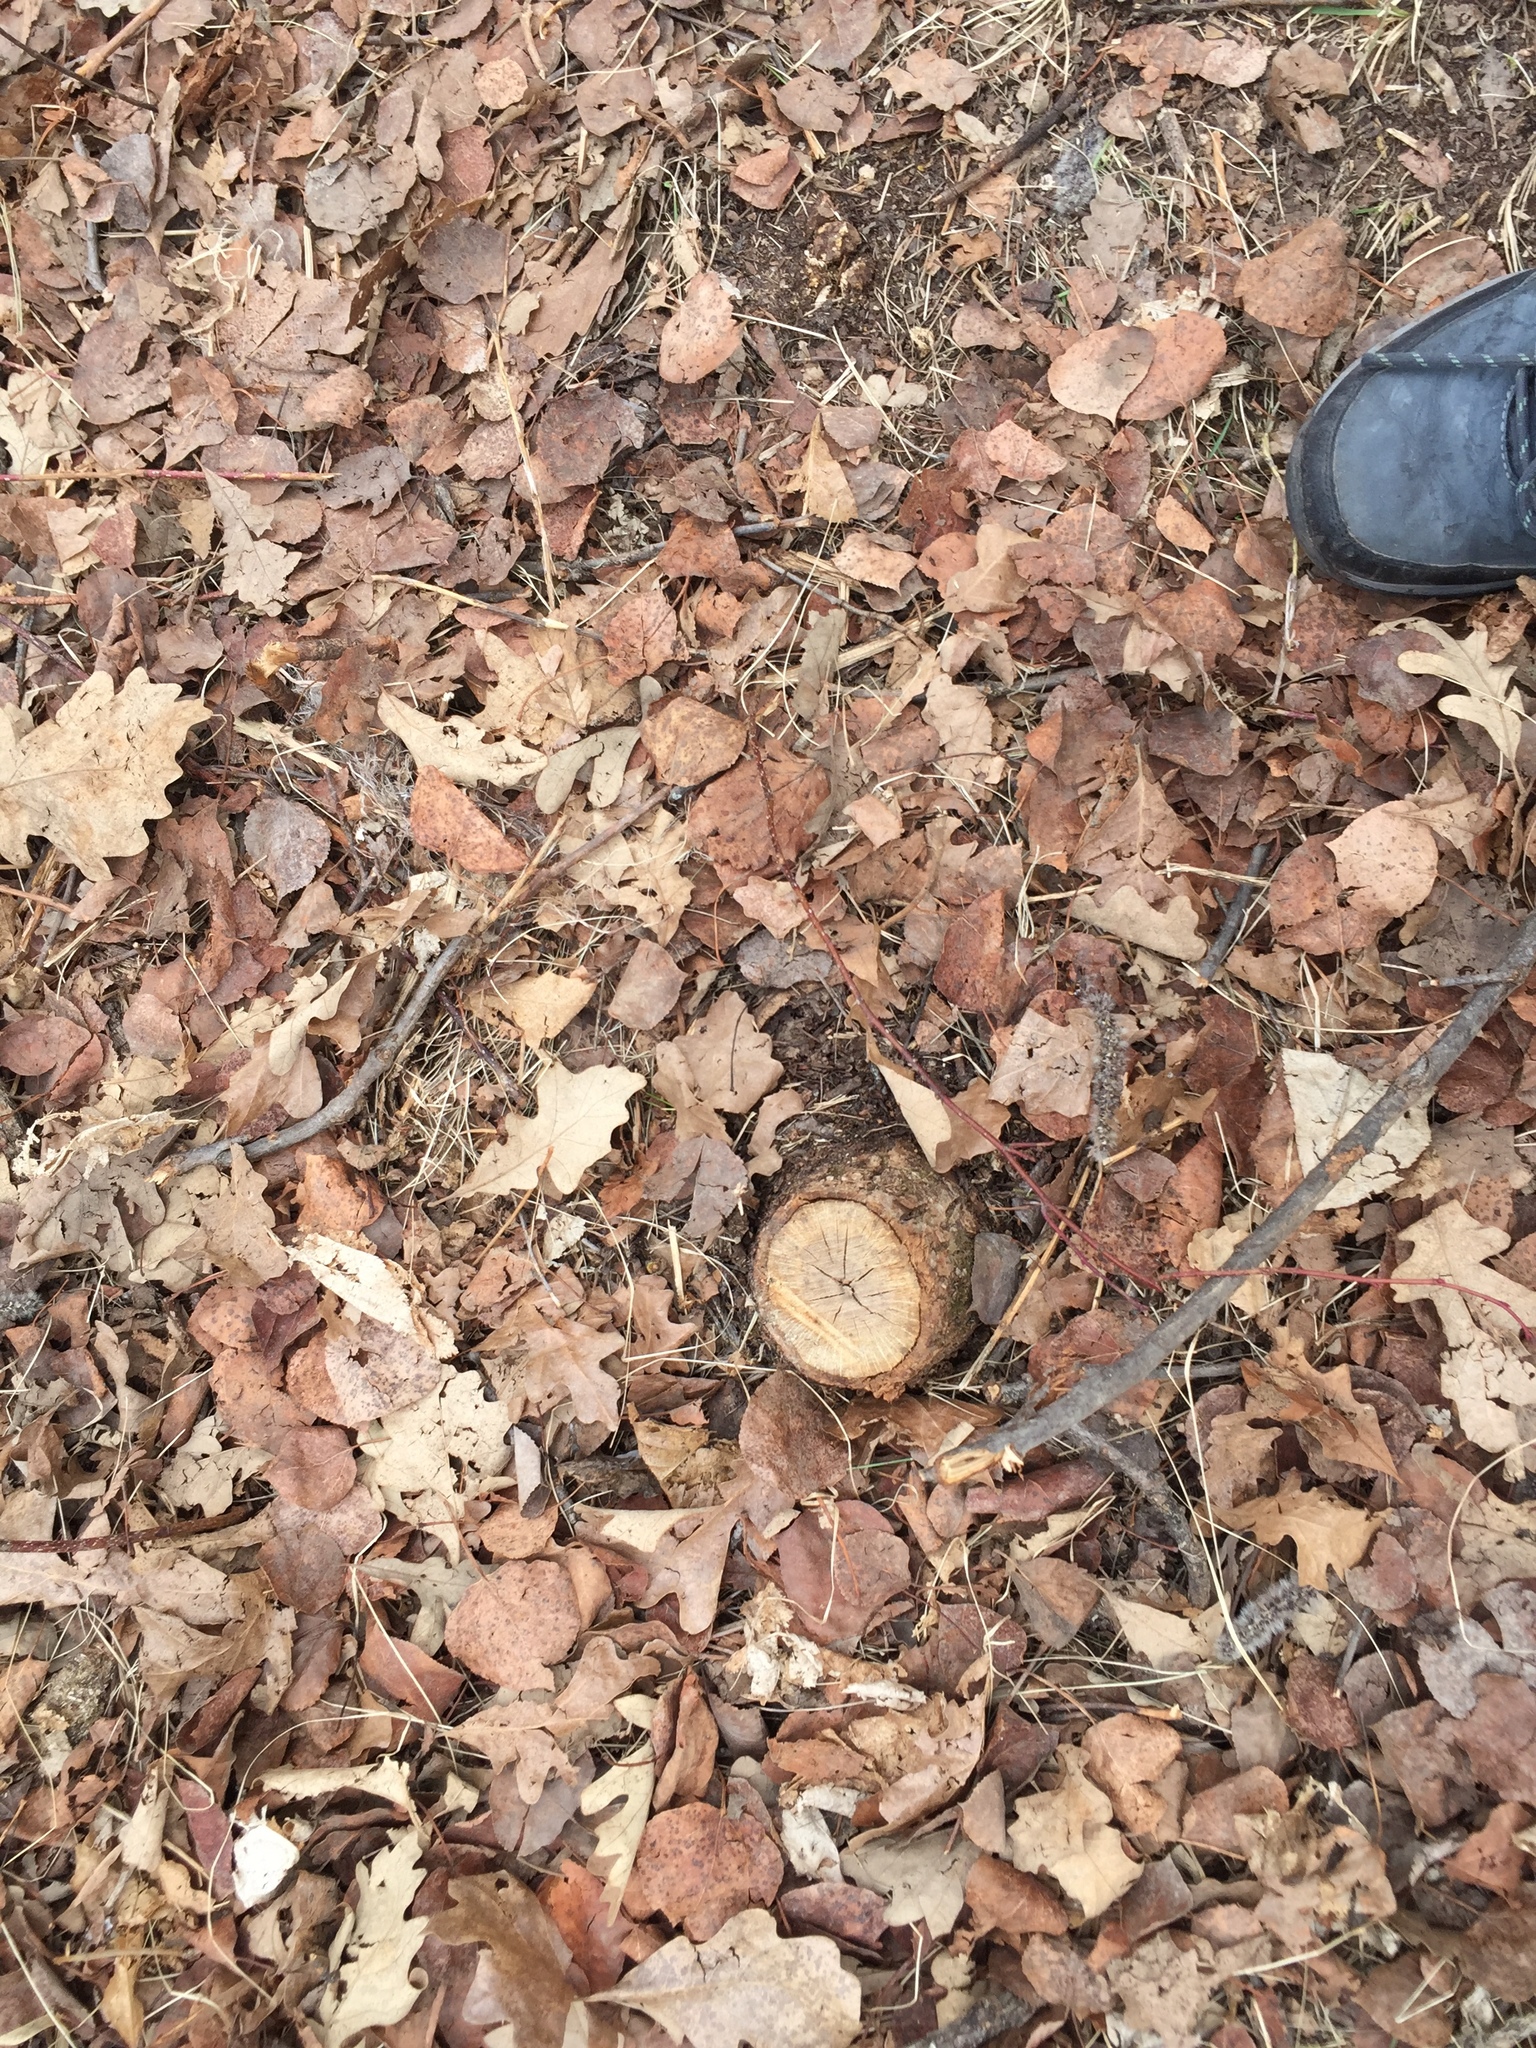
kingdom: Plantae
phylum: Tracheophyta
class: Magnoliopsida
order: Fagales
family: Fagaceae
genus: Quercus
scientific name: Quercus macrocarpa
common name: Bur oak
